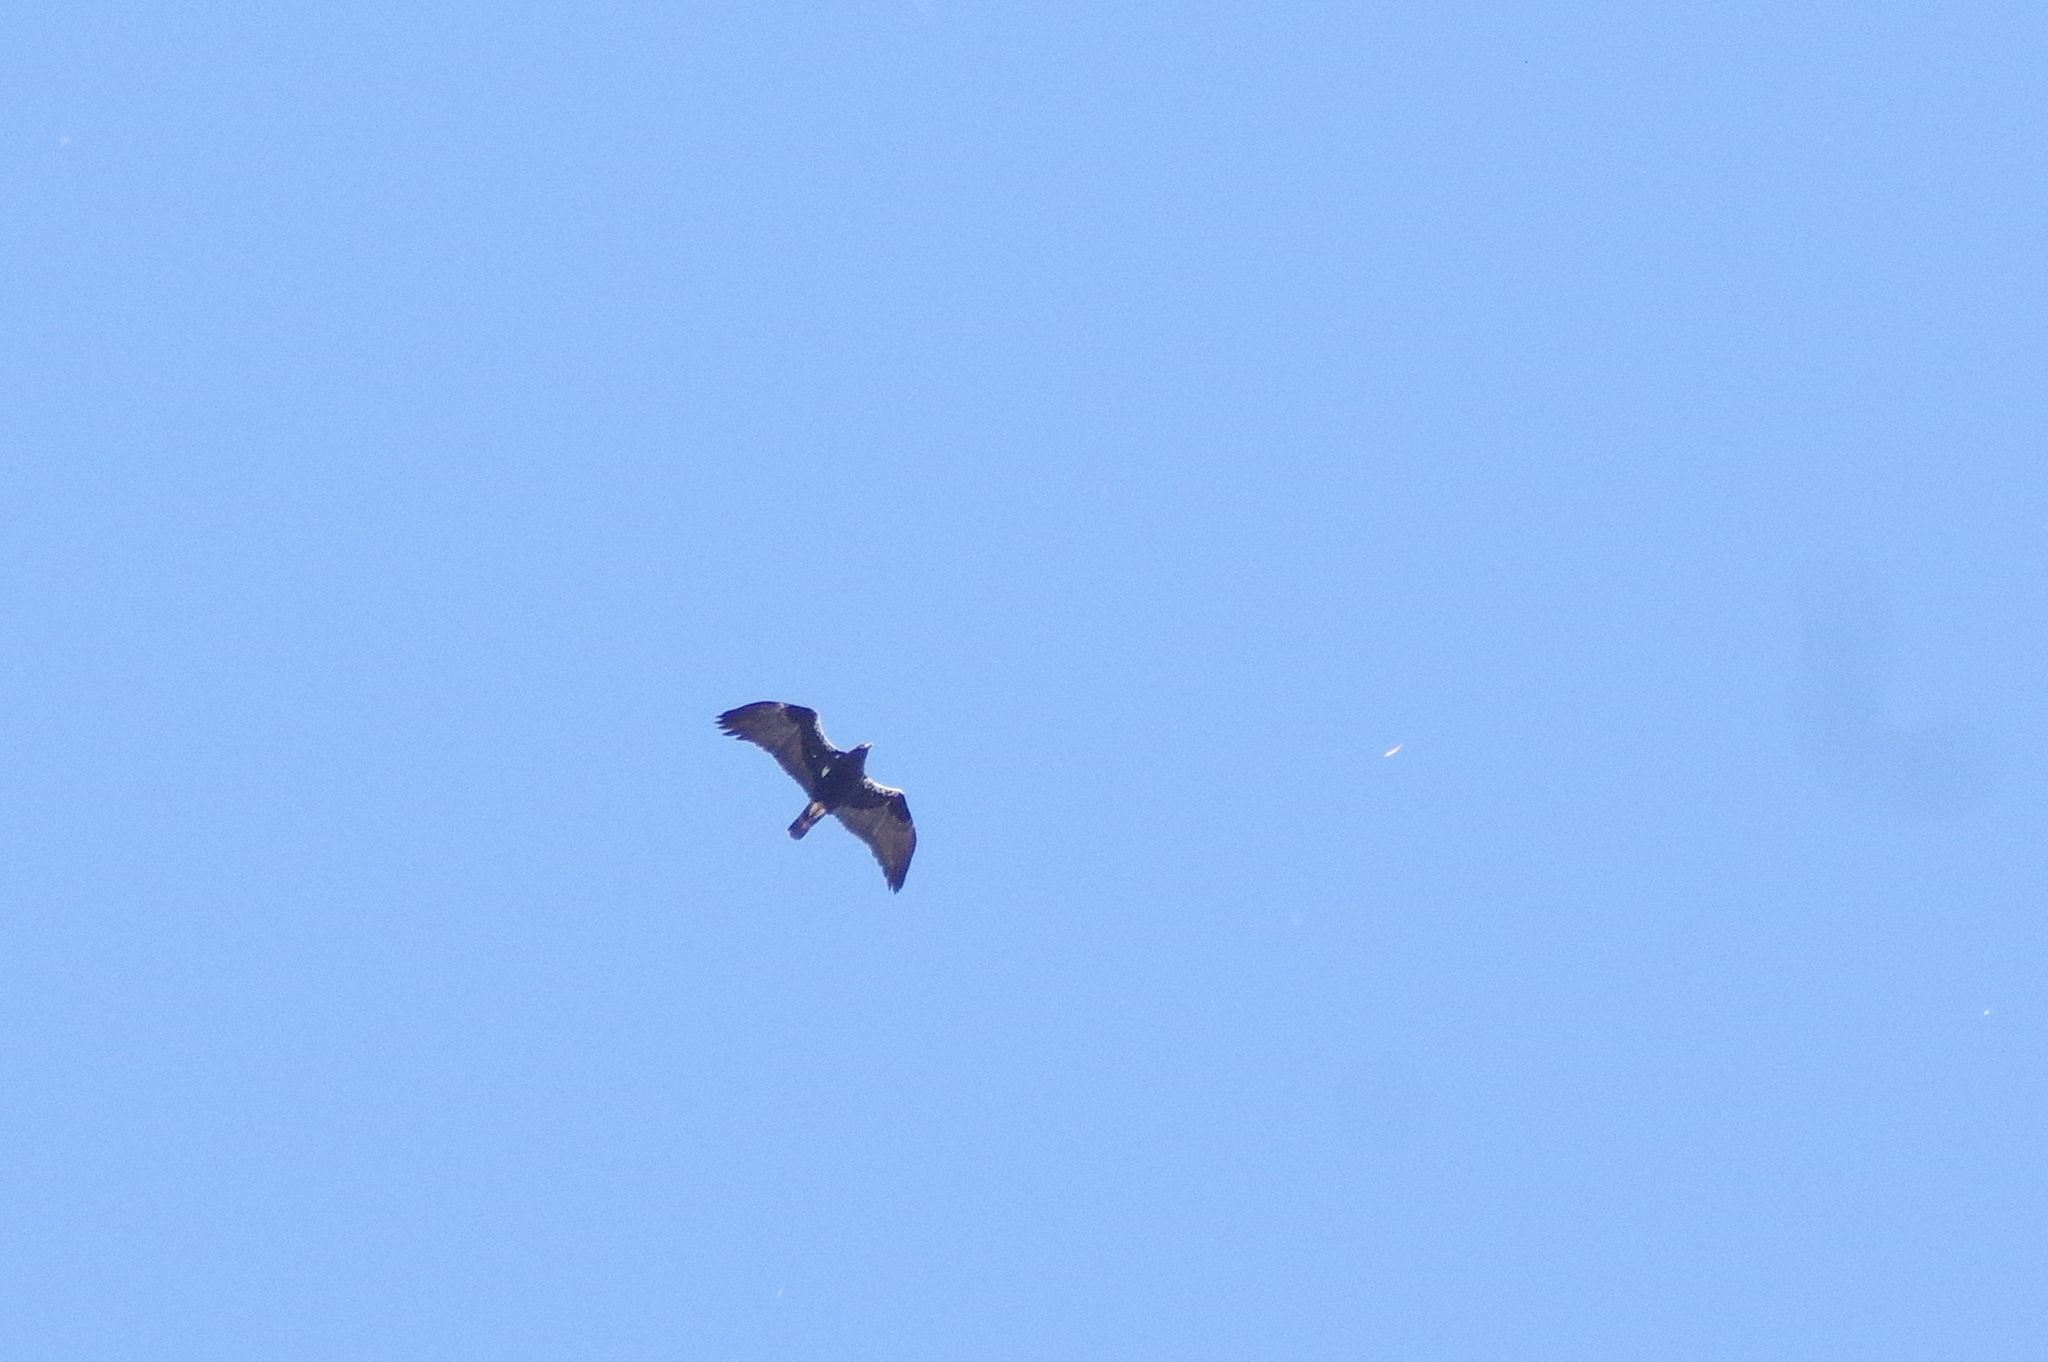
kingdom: Animalia
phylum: Chordata
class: Aves
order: Accipitriformes
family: Accipitridae
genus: Aquila
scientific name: Aquila adalberti
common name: Spanish imperial eagle
